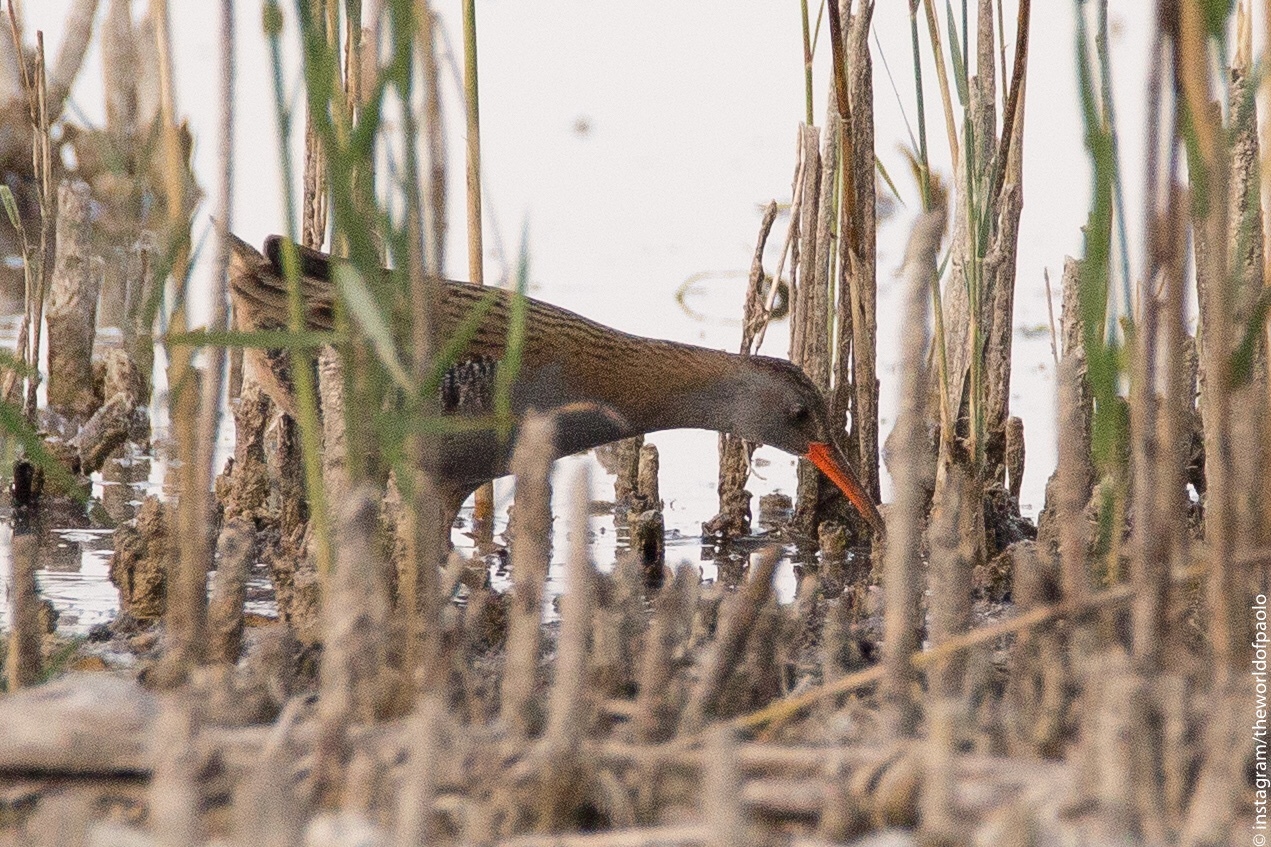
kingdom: Animalia
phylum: Chordata
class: Aves
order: Gruiformes
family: Rallidae
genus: Rallus
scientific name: Rallus aquaticus
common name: Water rail
